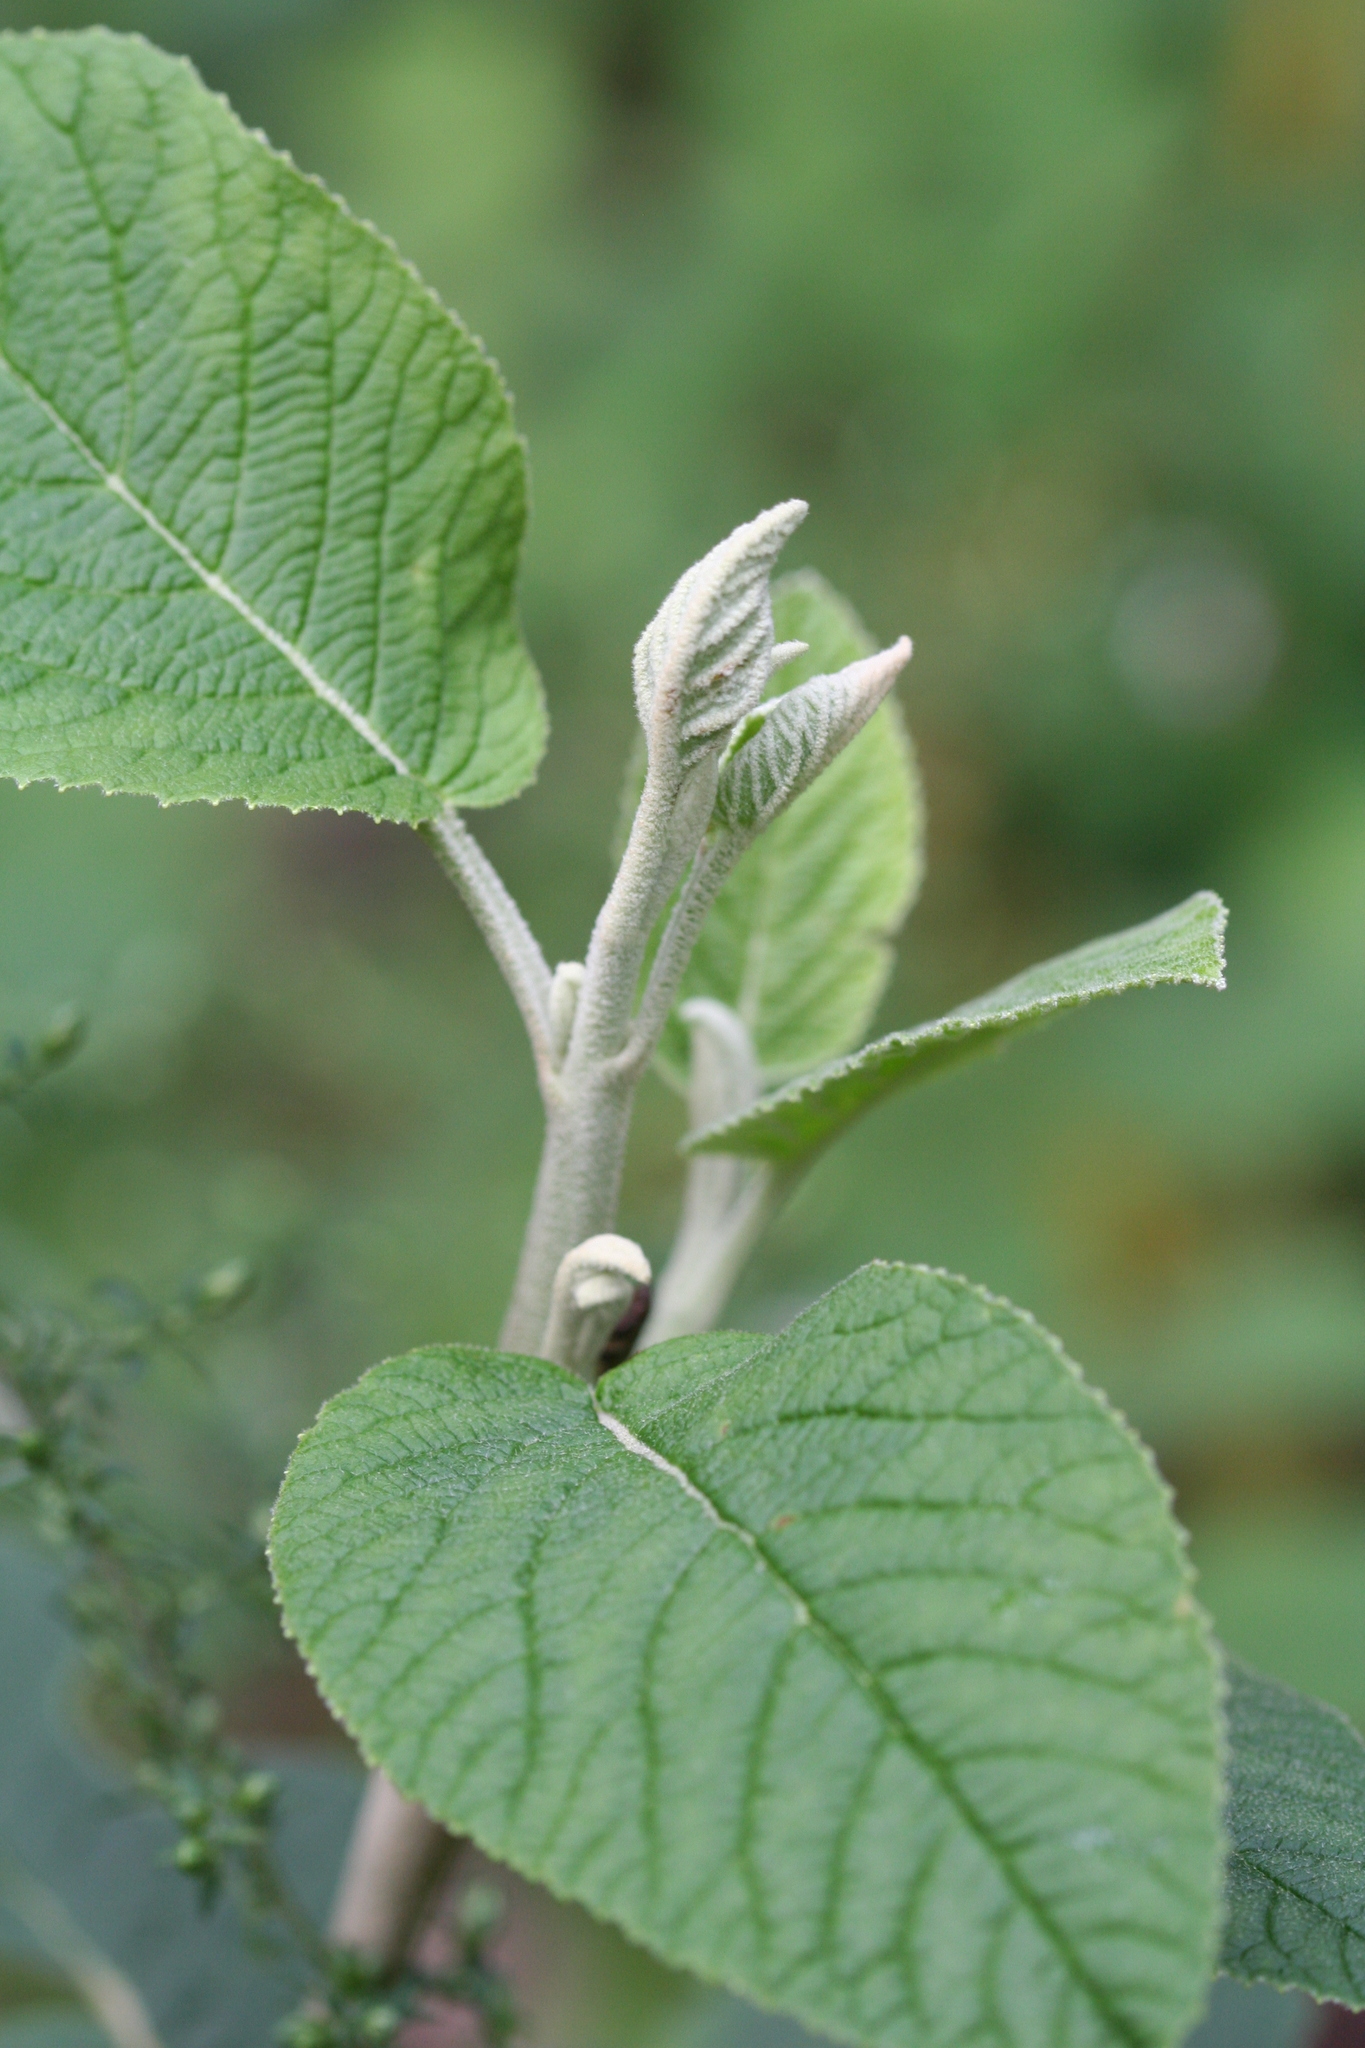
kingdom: Plantae
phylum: Tracheophyta
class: Magnoliopsida
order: Dipsacales
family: Viburnaceae
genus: Viburnum
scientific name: Viburnum lantana
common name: Wayfaring tree
